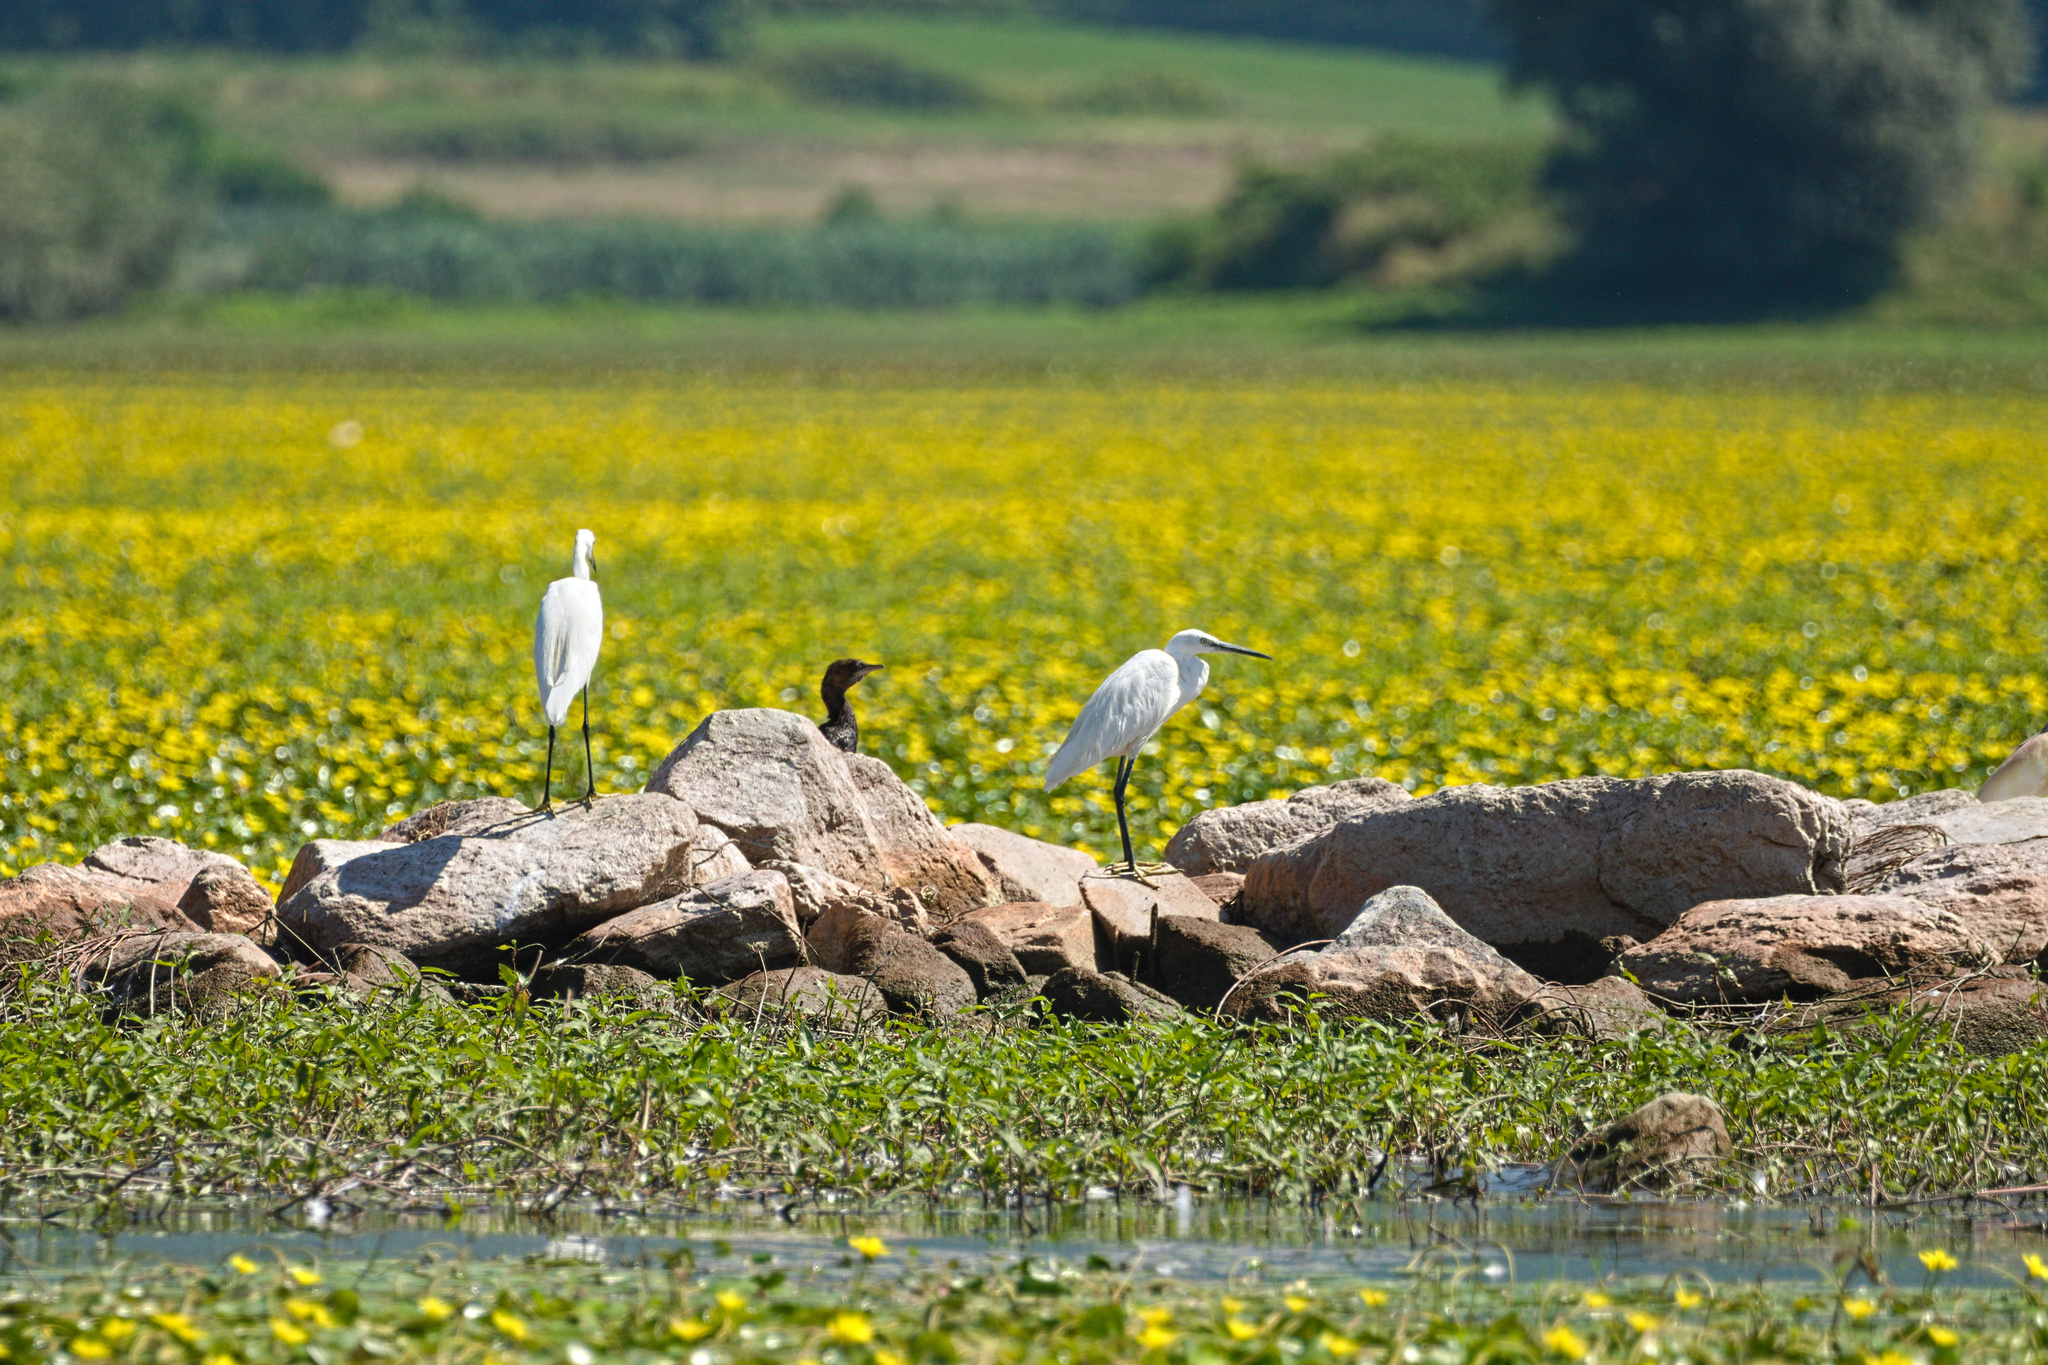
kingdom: Animalia
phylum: Chordata
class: Aves
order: Pelecaniformes
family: Ardeidae
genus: Ardea
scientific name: Ardea alba
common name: Great egret
